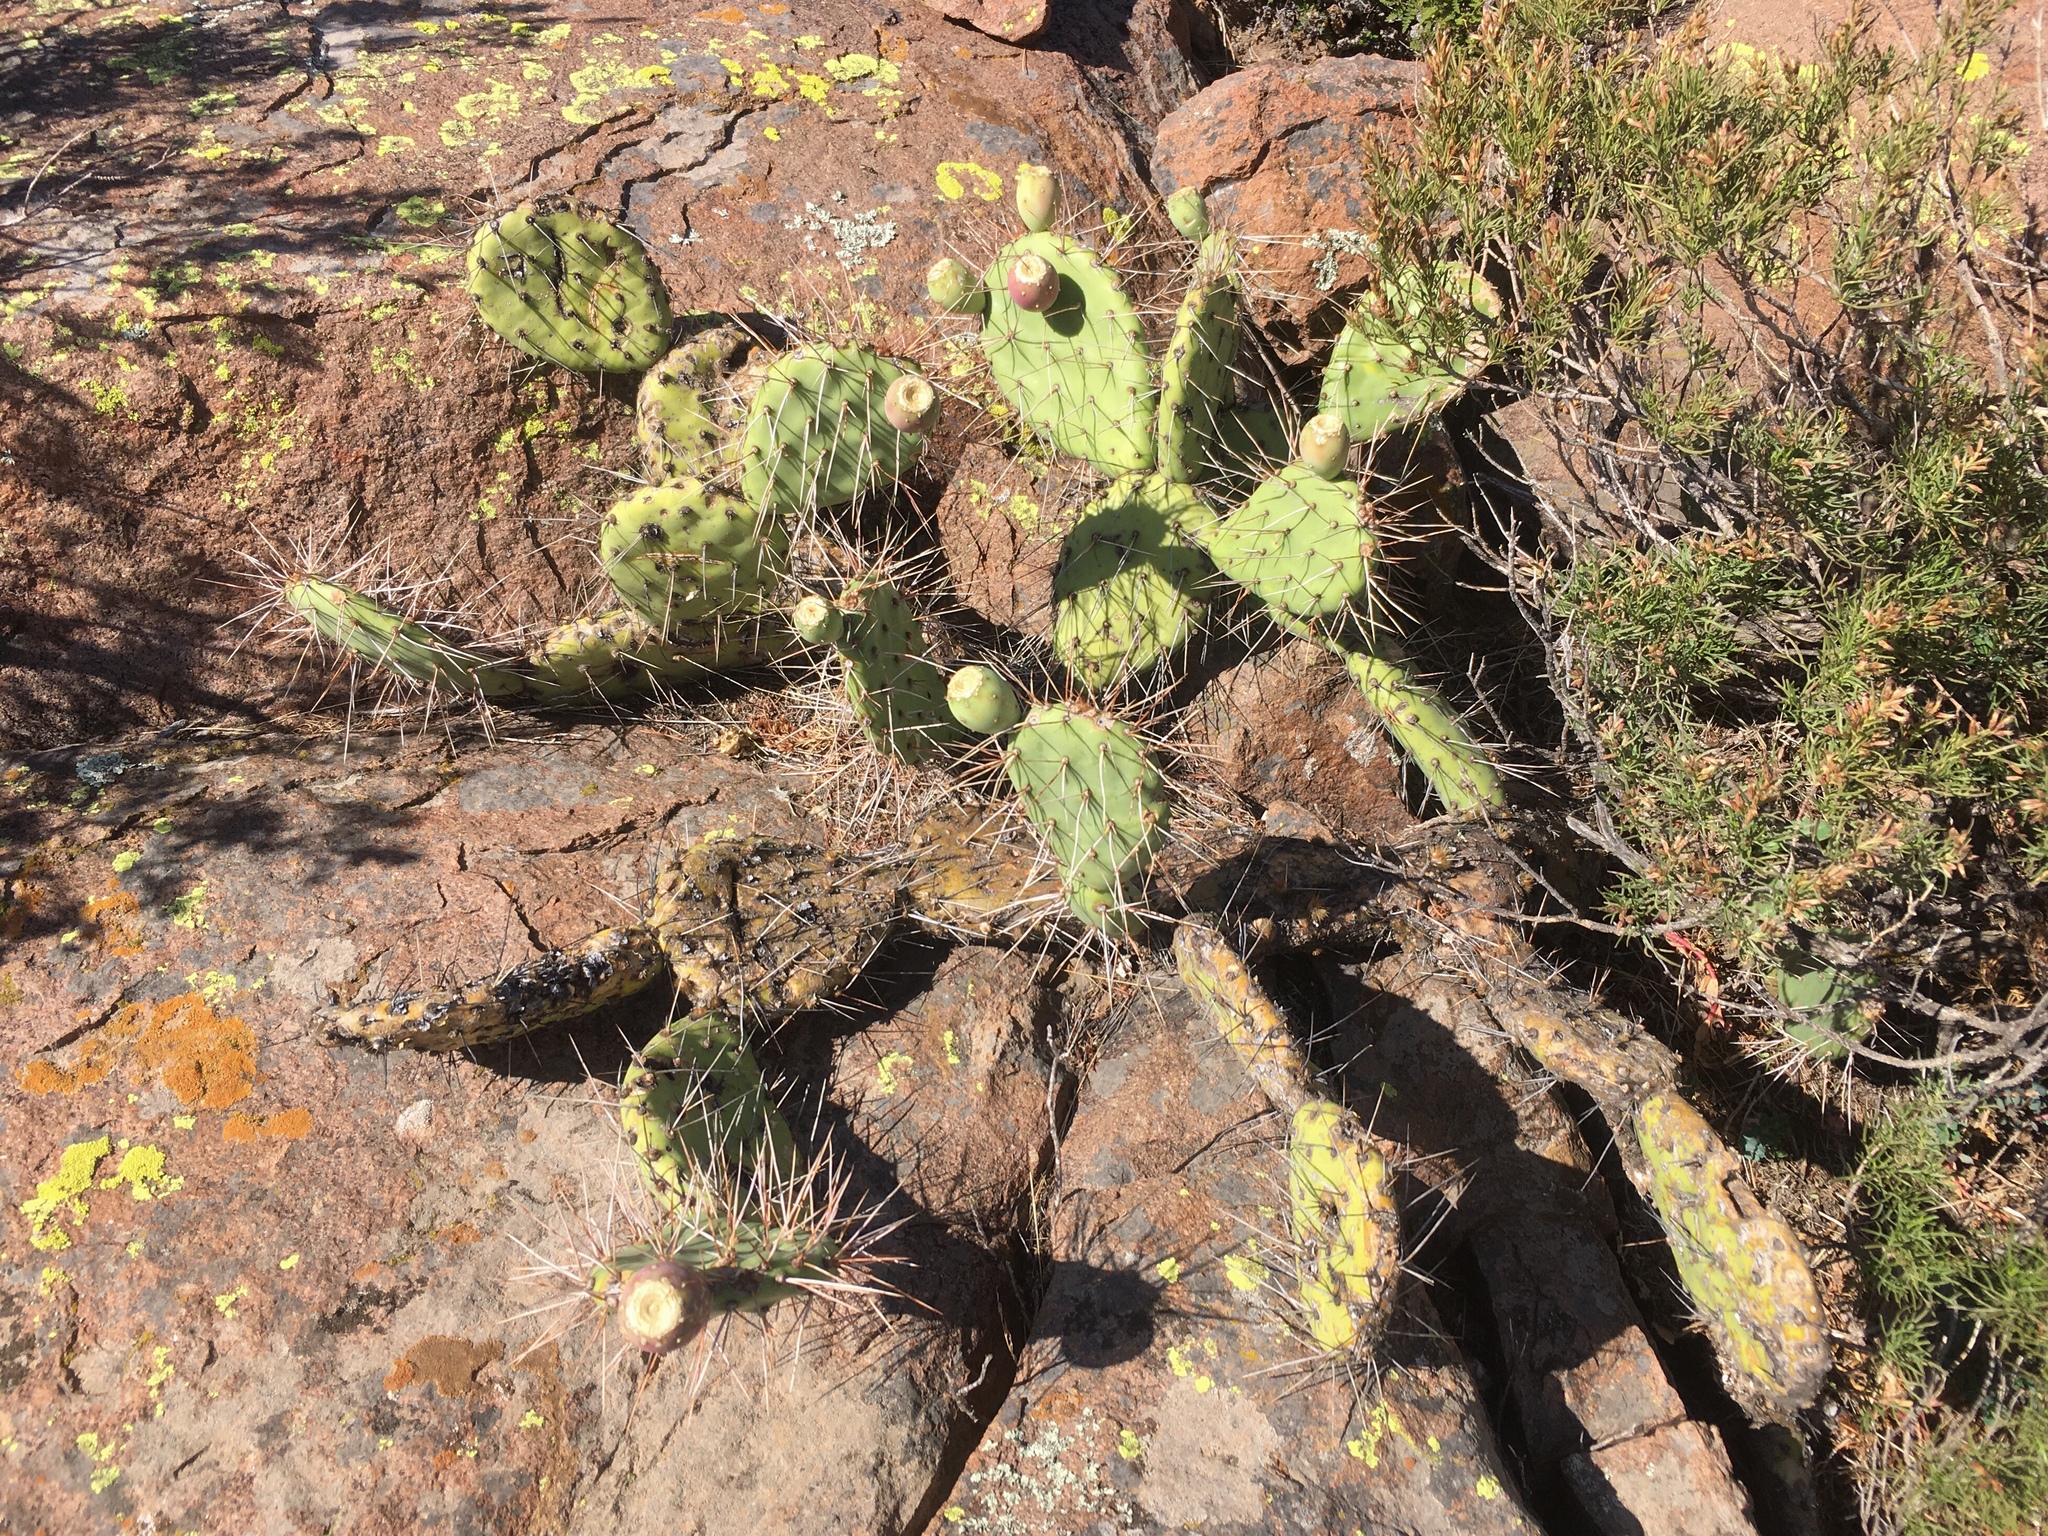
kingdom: Plantae
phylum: Tracheophyta
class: Magnoliopsida
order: Caryophyllales
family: Cactaceae
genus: Opuntia
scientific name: Opuntia sulphurea
